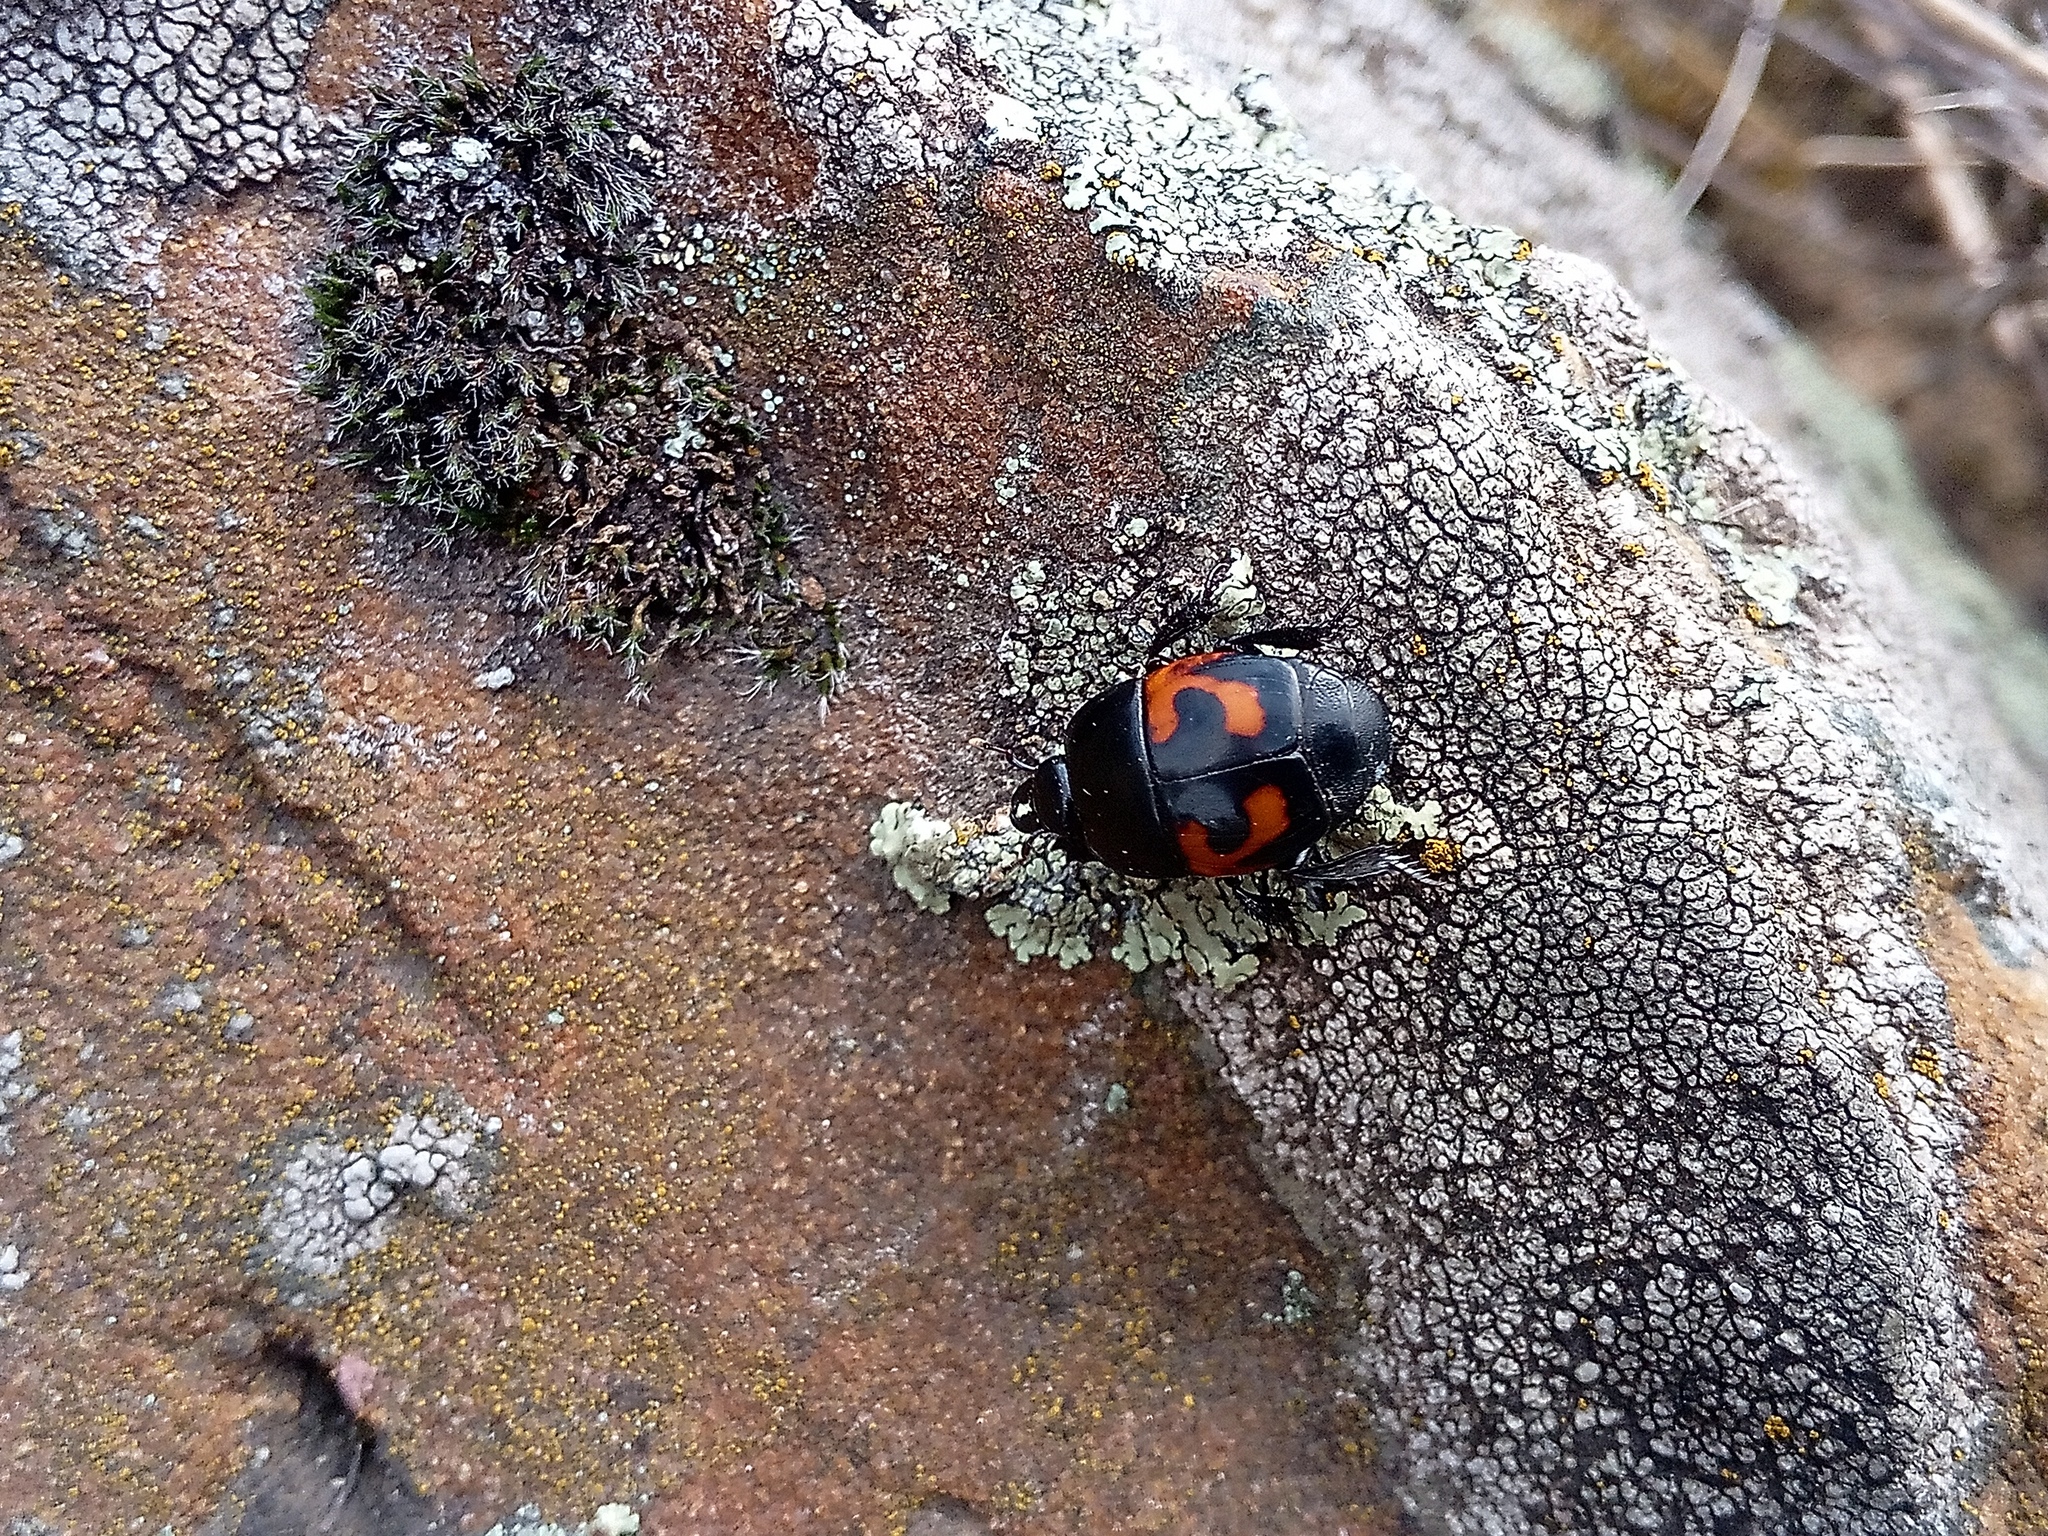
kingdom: Animalia
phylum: Arthropoda
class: Insecta
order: Coleoptera
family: Histeridae
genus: Hister
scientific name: Hister quadrimaculatus
